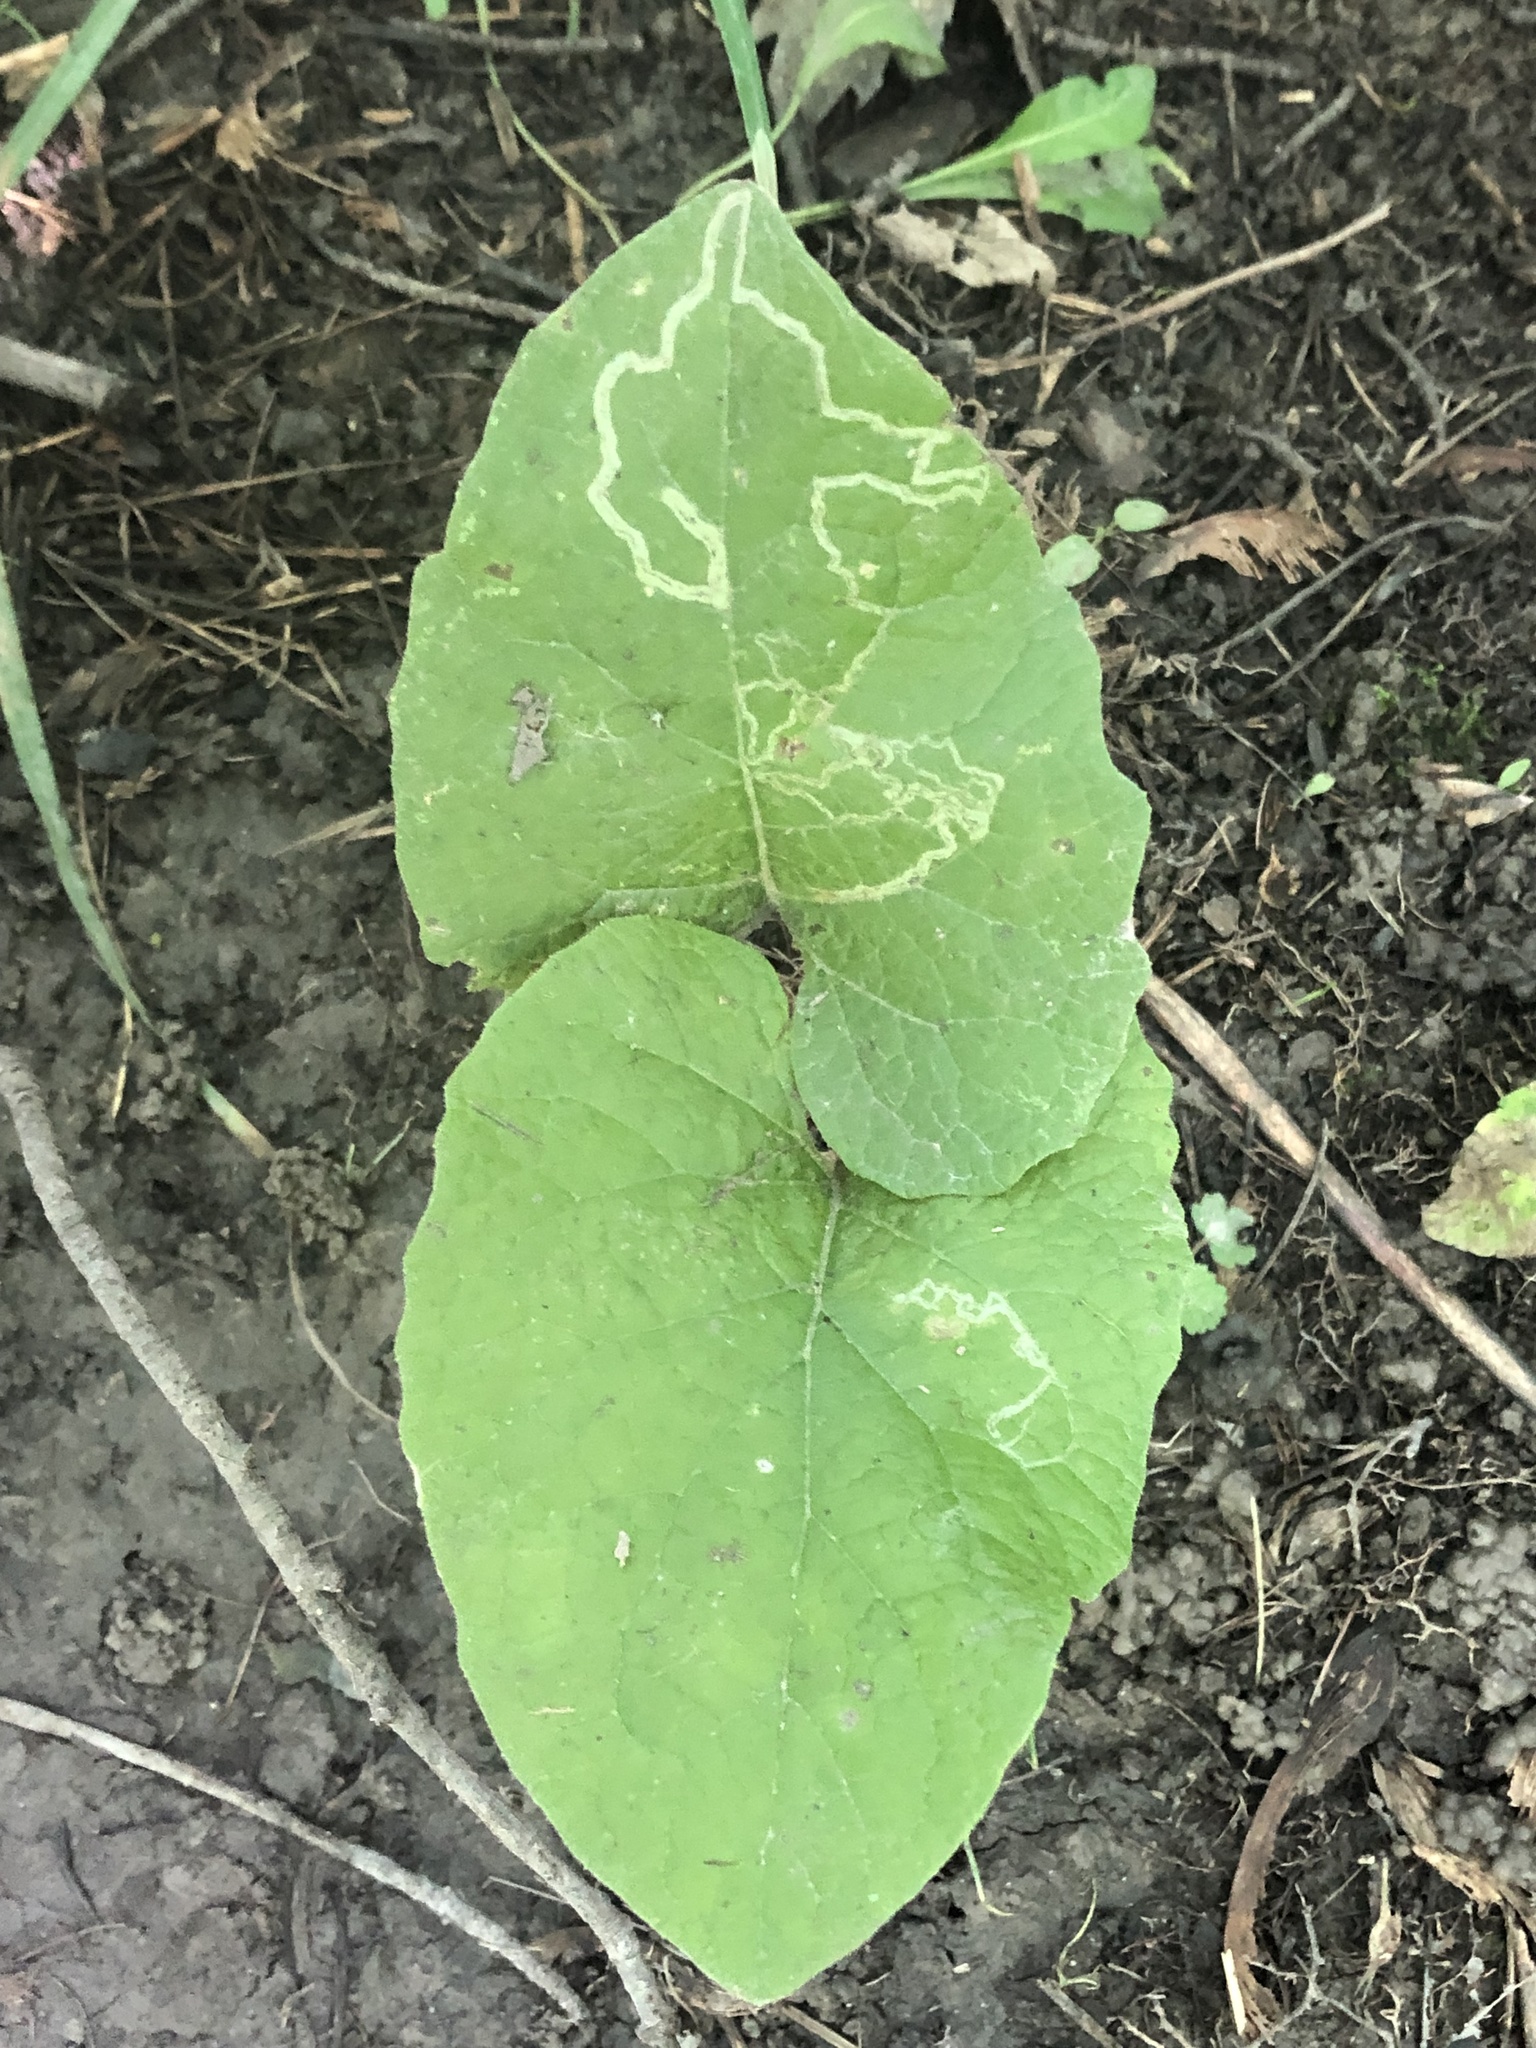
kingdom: Animalia
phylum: Arthropoda
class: Insecta
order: Diptera
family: Agromyzidae
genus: Liriomyza
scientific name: Liriomyza arctii
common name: Burdock leafminer
